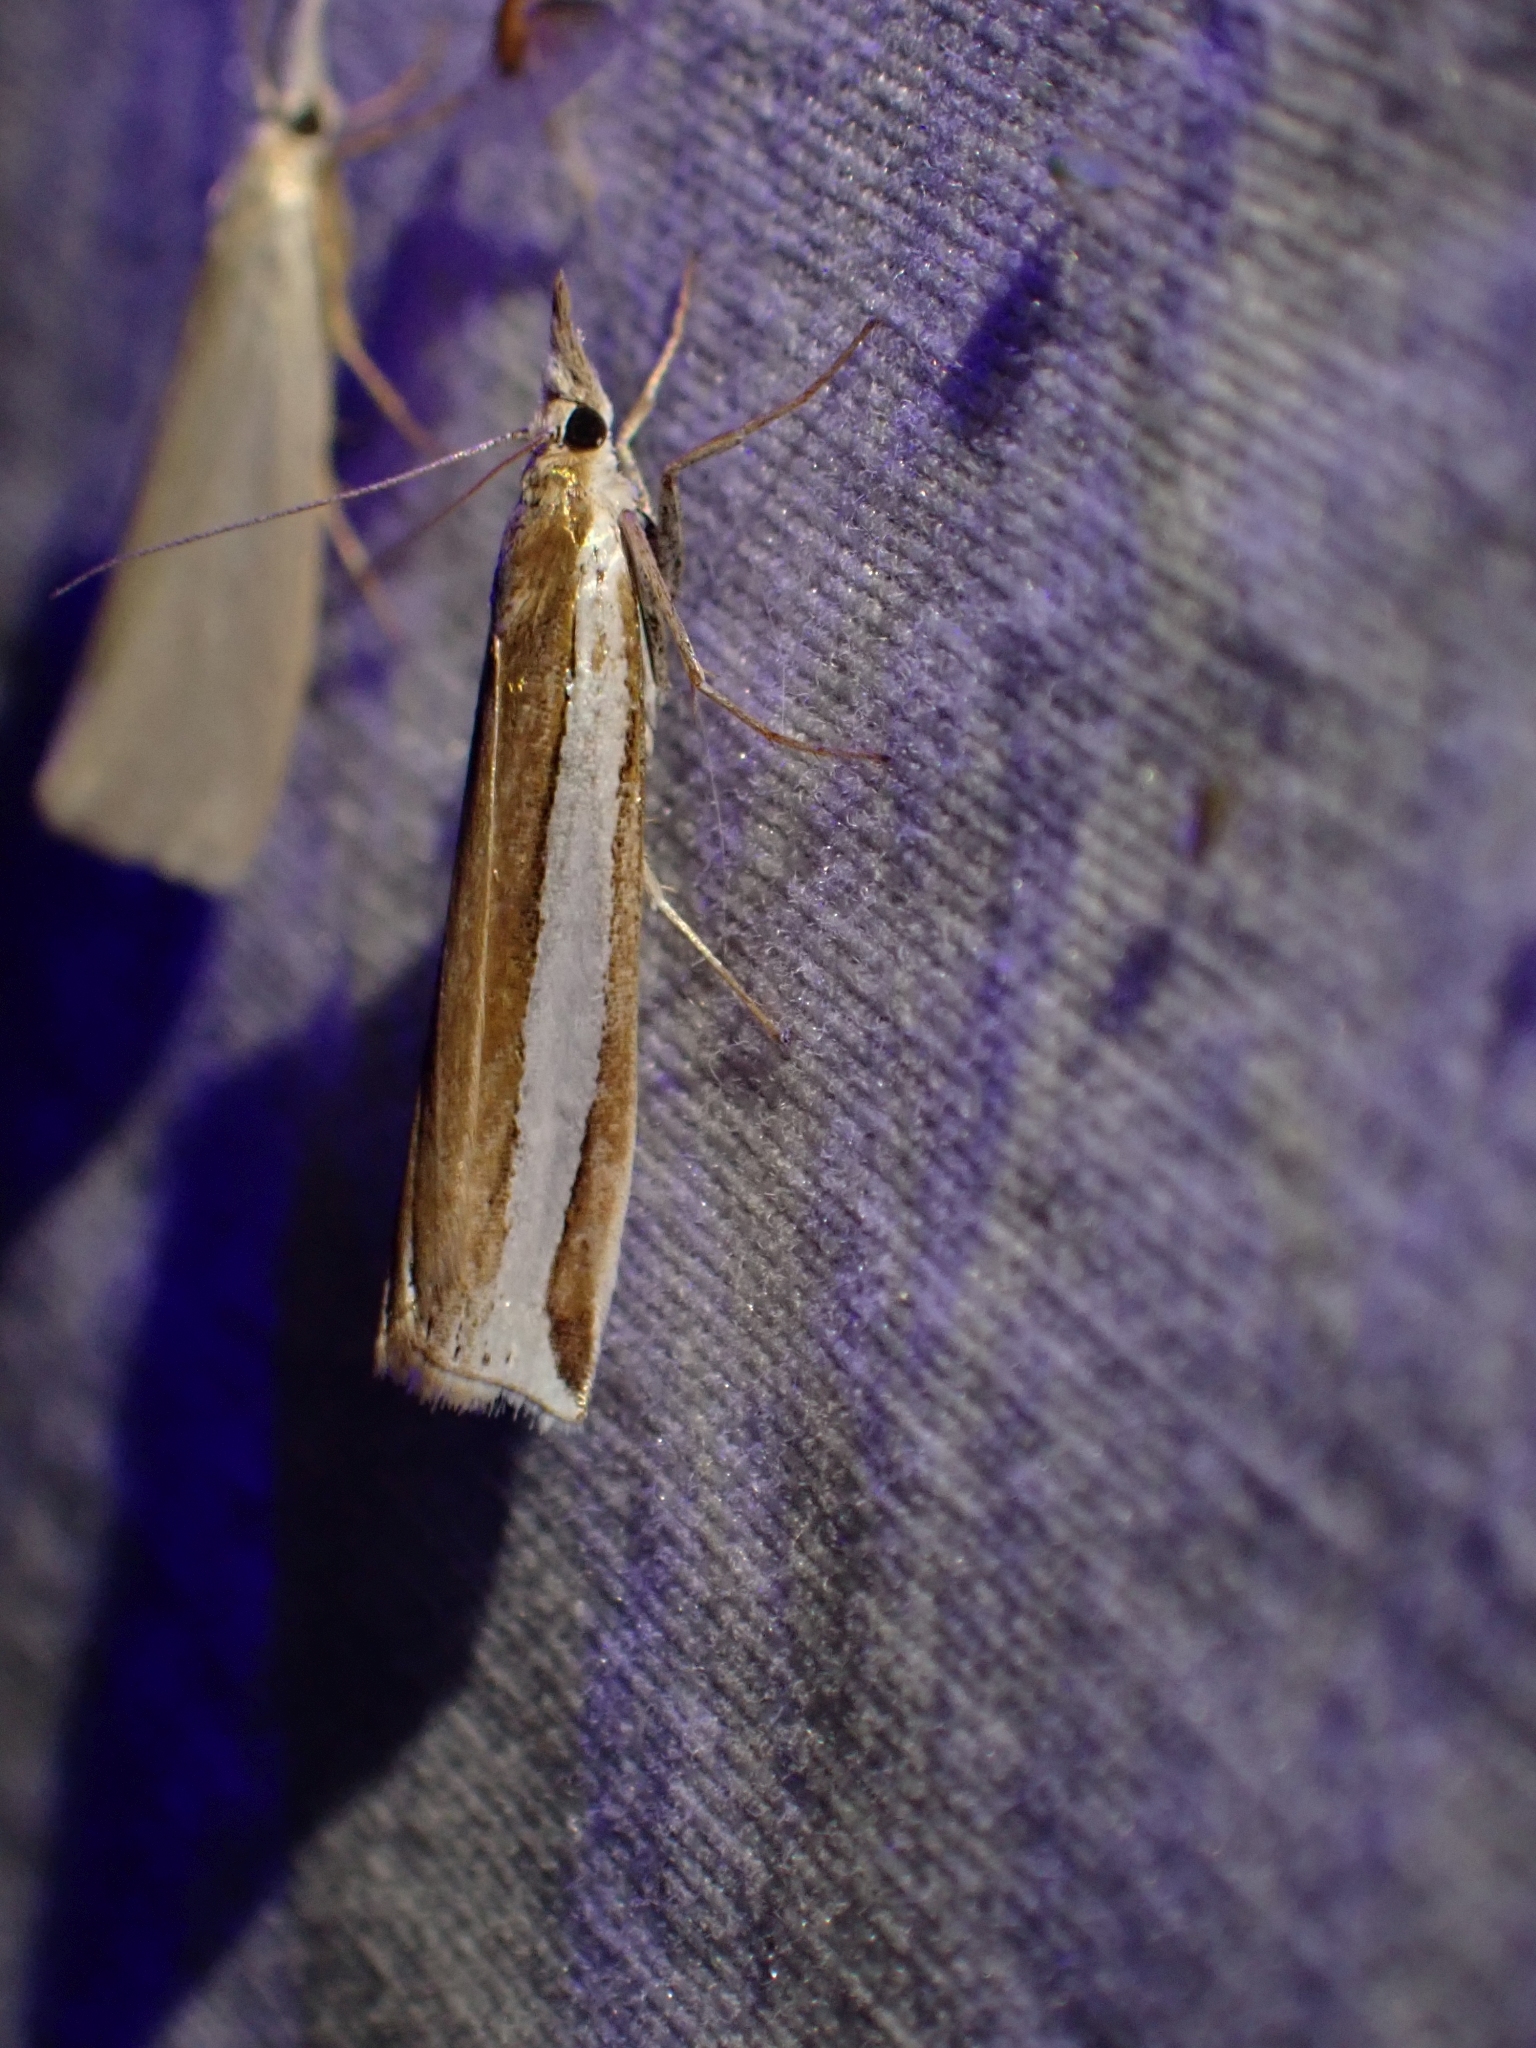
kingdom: Animalia
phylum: Arthropoda
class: Insecta
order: Lepidoptera
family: Crambidae
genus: Crambus
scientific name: Crambus unistriatellus
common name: Wide-stripe grass-veneer moth
